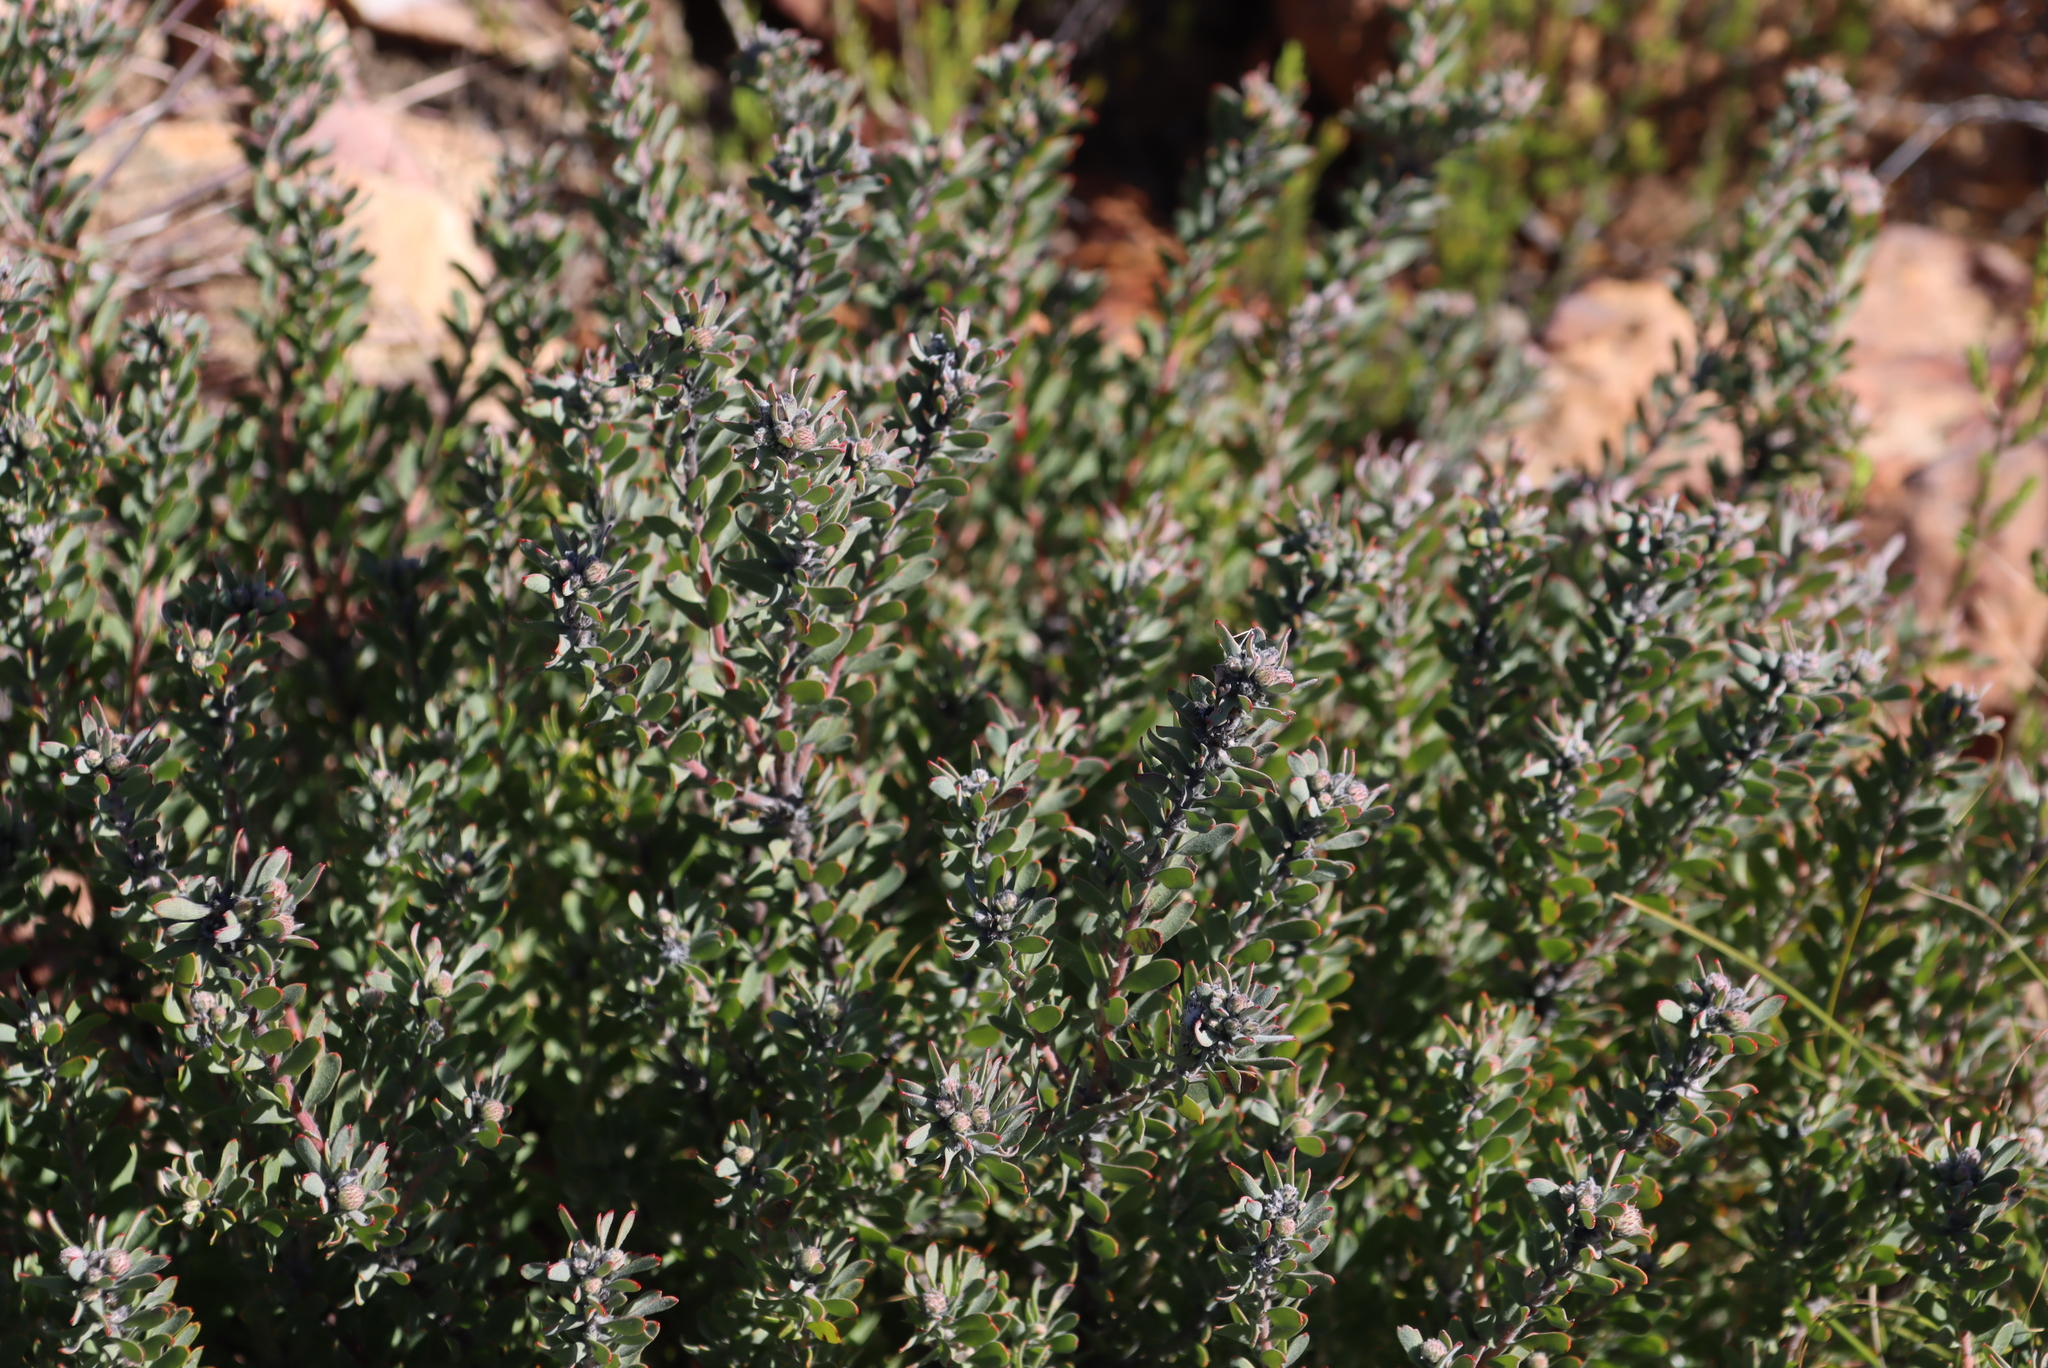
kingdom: Plantae
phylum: Tracheophyta
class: Magnoliopsida
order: Proteales
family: Proteaceae
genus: Leucospermum
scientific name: Leucospermum wittebergense
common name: Swartberg pincushion
